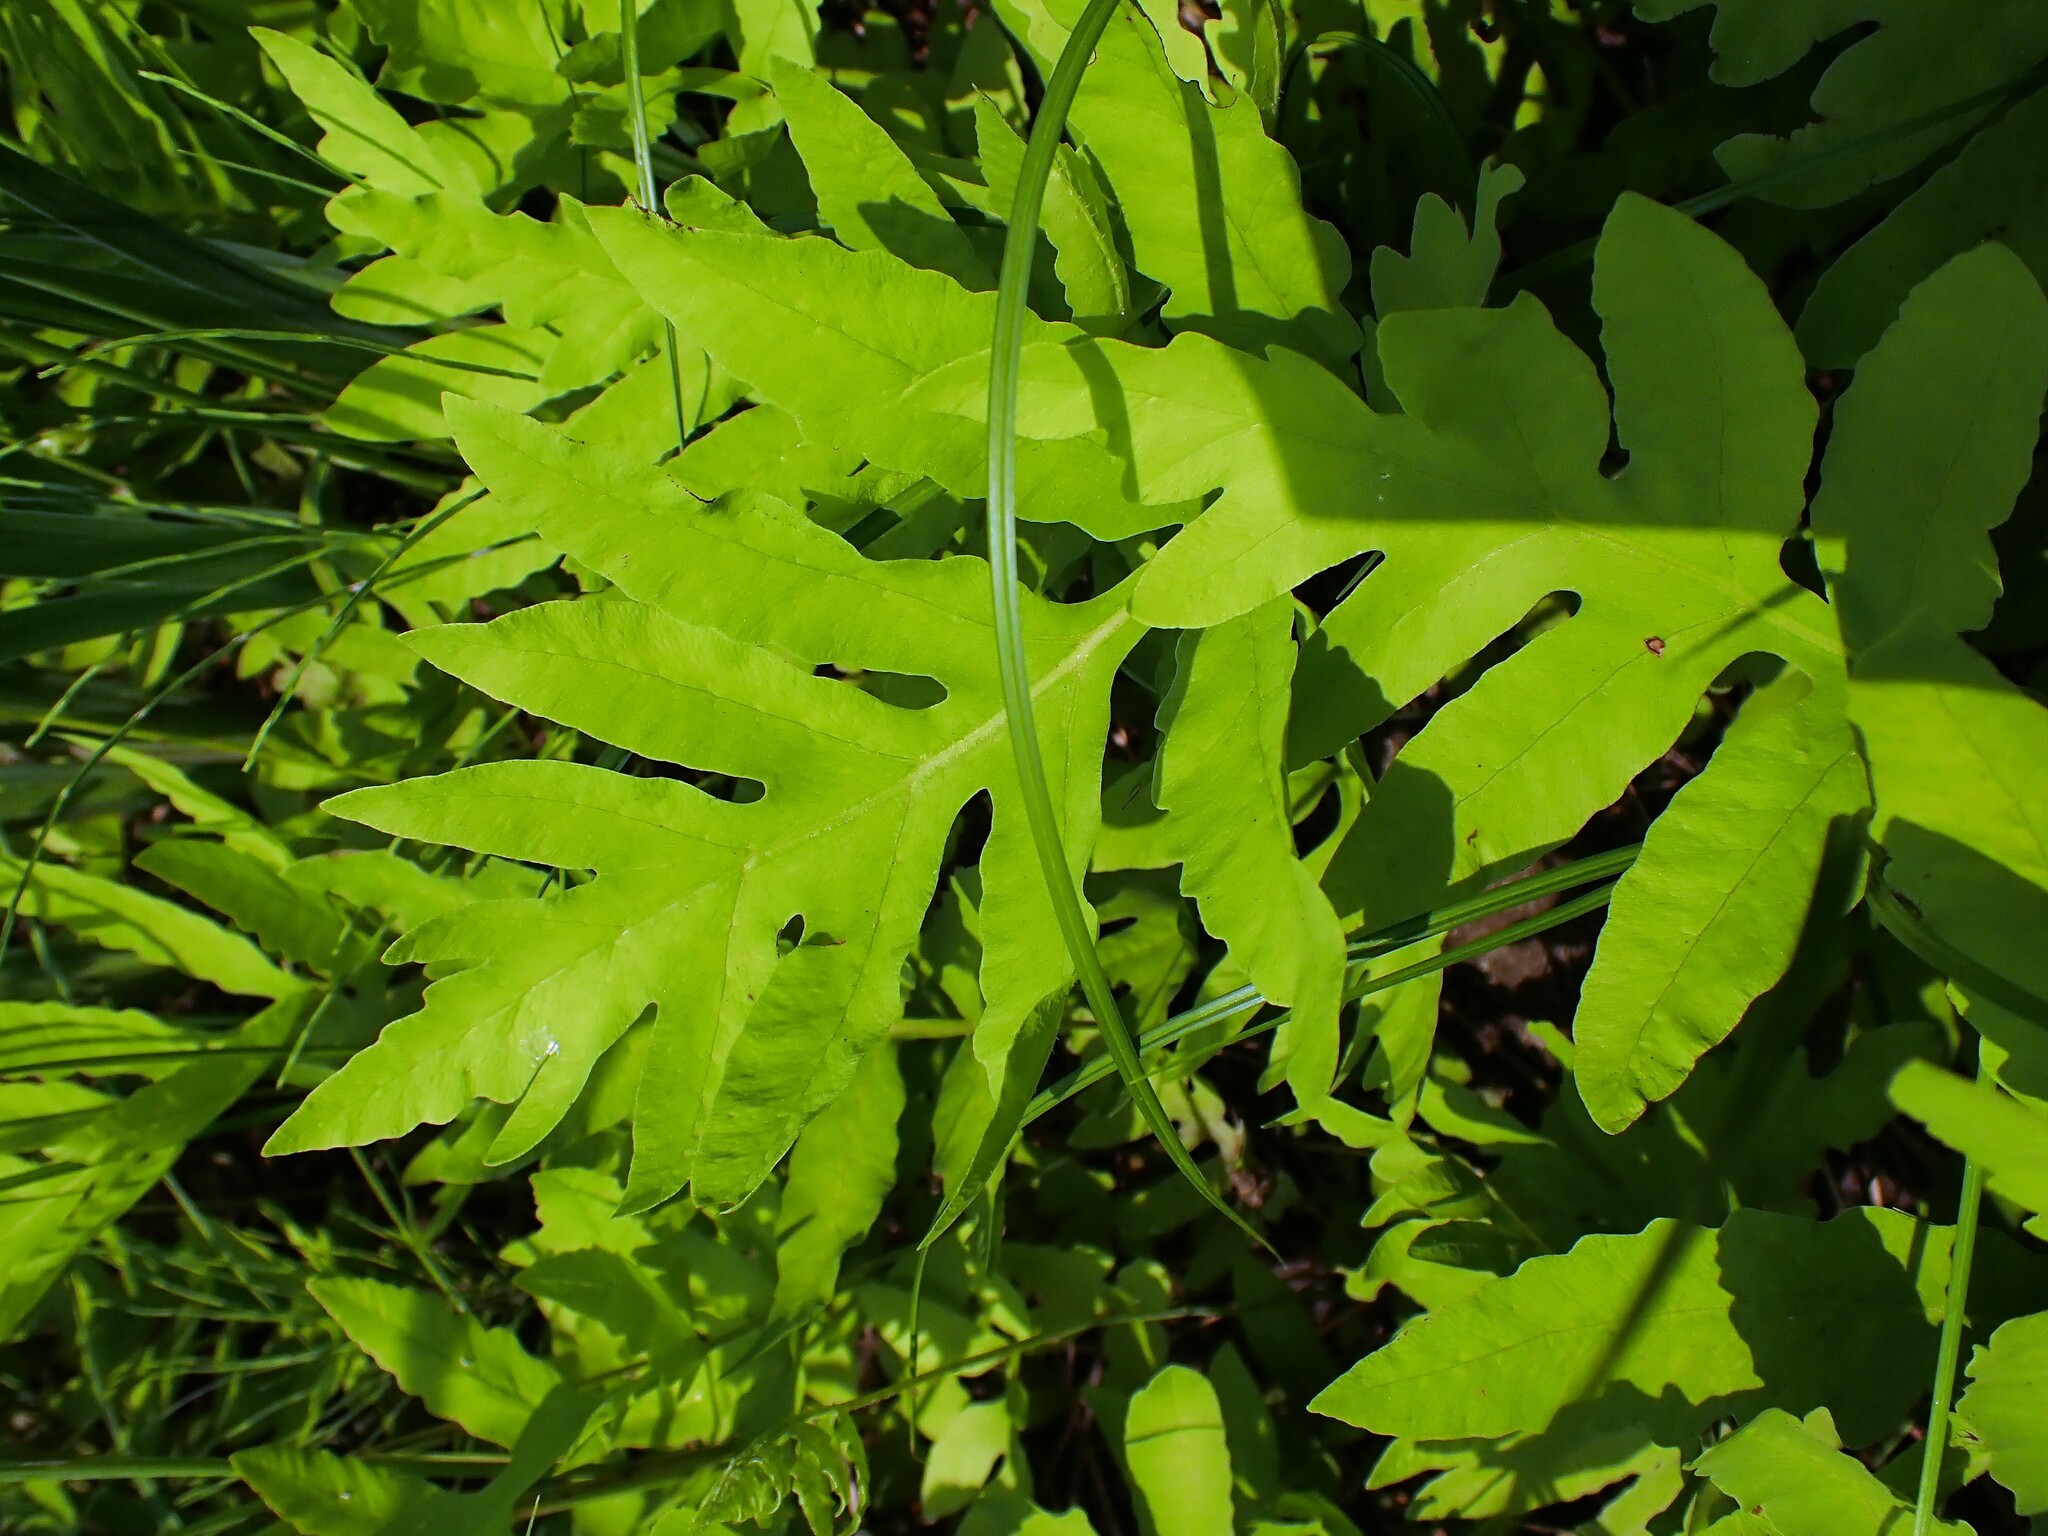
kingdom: Plantae
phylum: Tracheophyta
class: Polypodiopsida
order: Polypodiales
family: Onocleaceae
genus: Onoclea
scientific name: Onoclea sensibilis
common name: Sensitive fern
